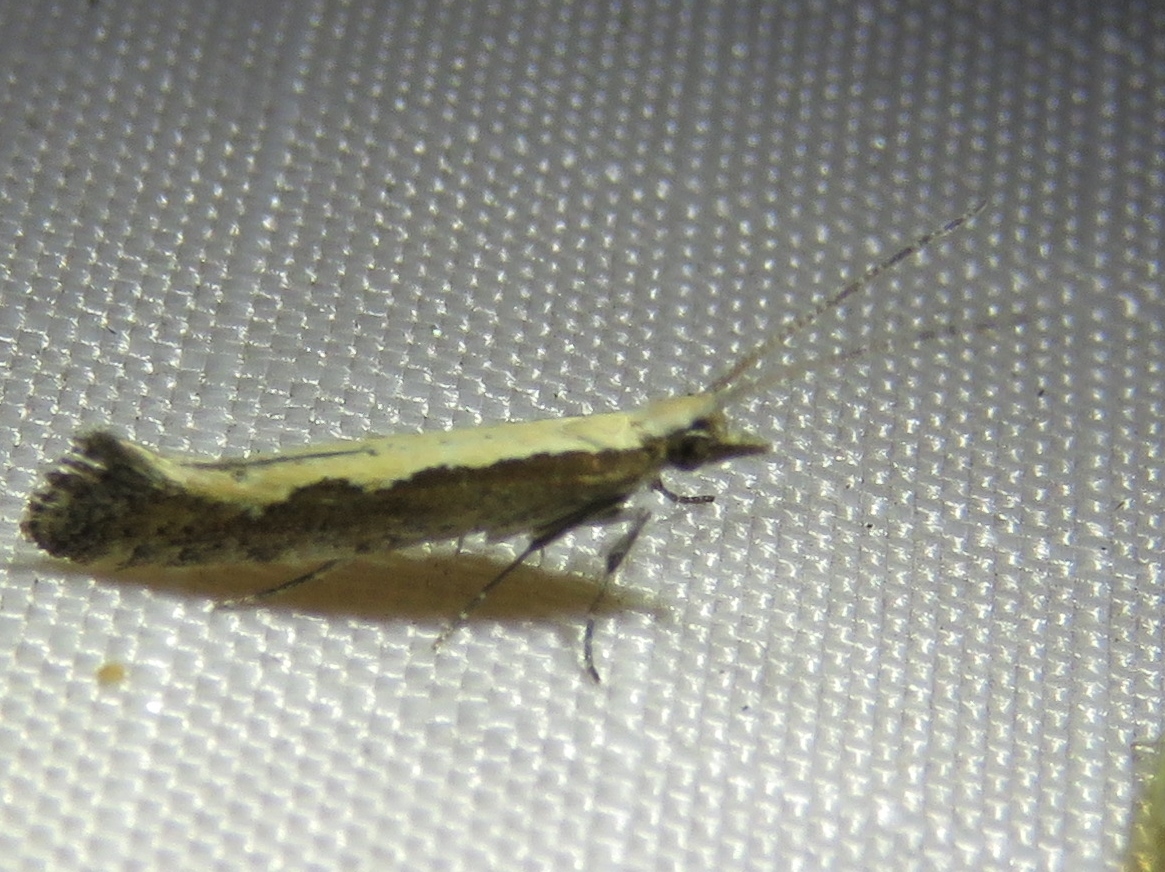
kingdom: Animalia
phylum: Arthropoda
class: Insecta
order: Lepidoptera
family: Plutellidae
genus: Plutella
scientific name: Plutella xylostella
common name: Diamond-back moth
